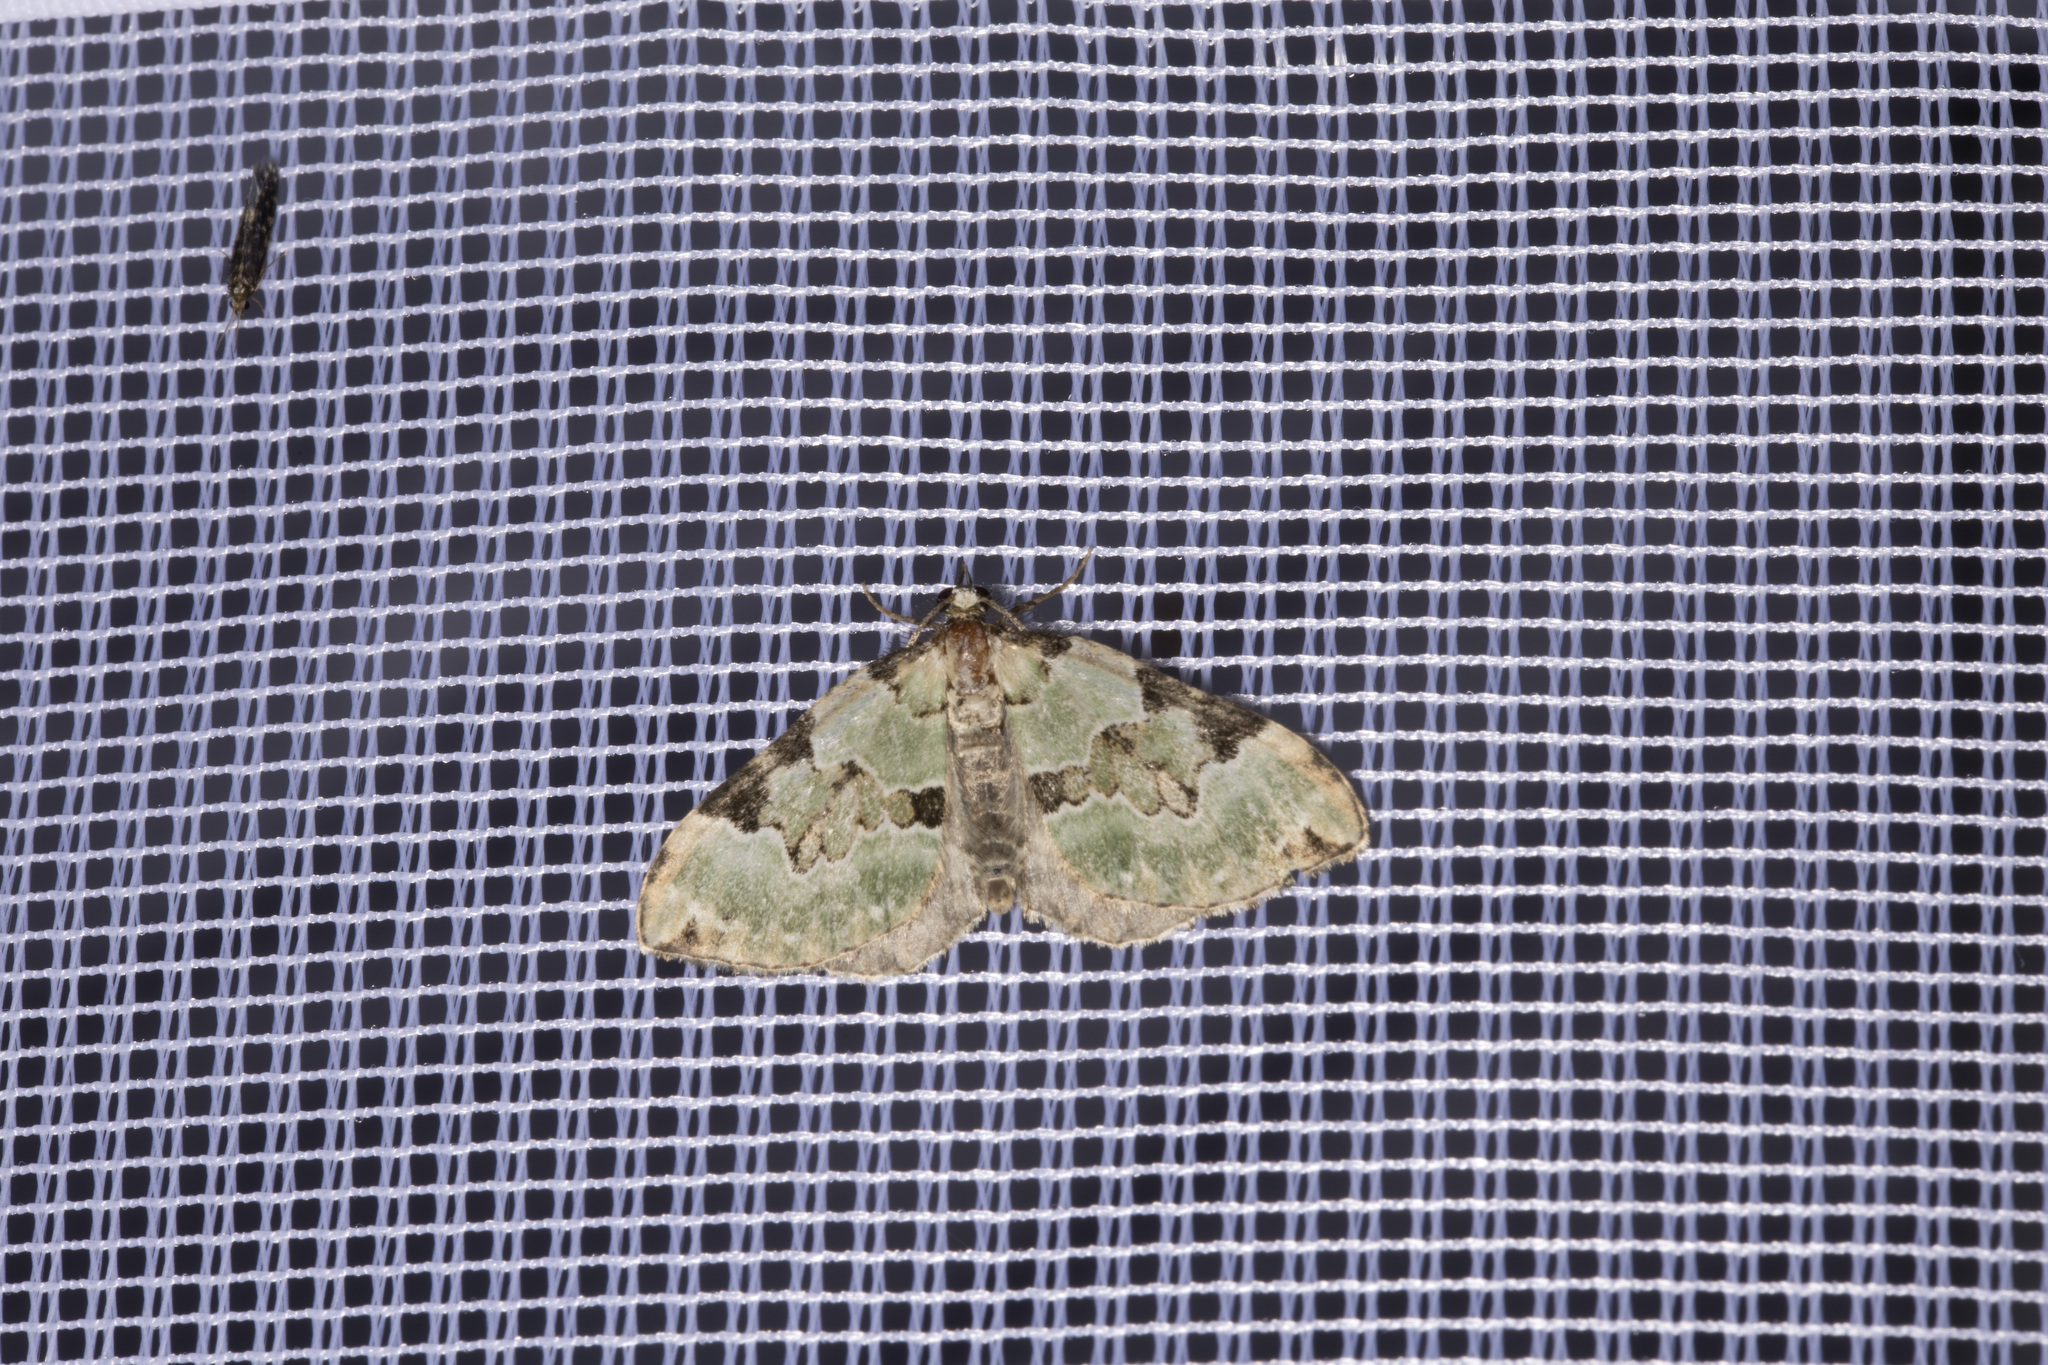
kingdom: Animalia
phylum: Arthropoda
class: Insecta
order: Lepidoptera
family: Geometridae
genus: Colostygia
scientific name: Colostygia pectinataria
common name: Green carpet
